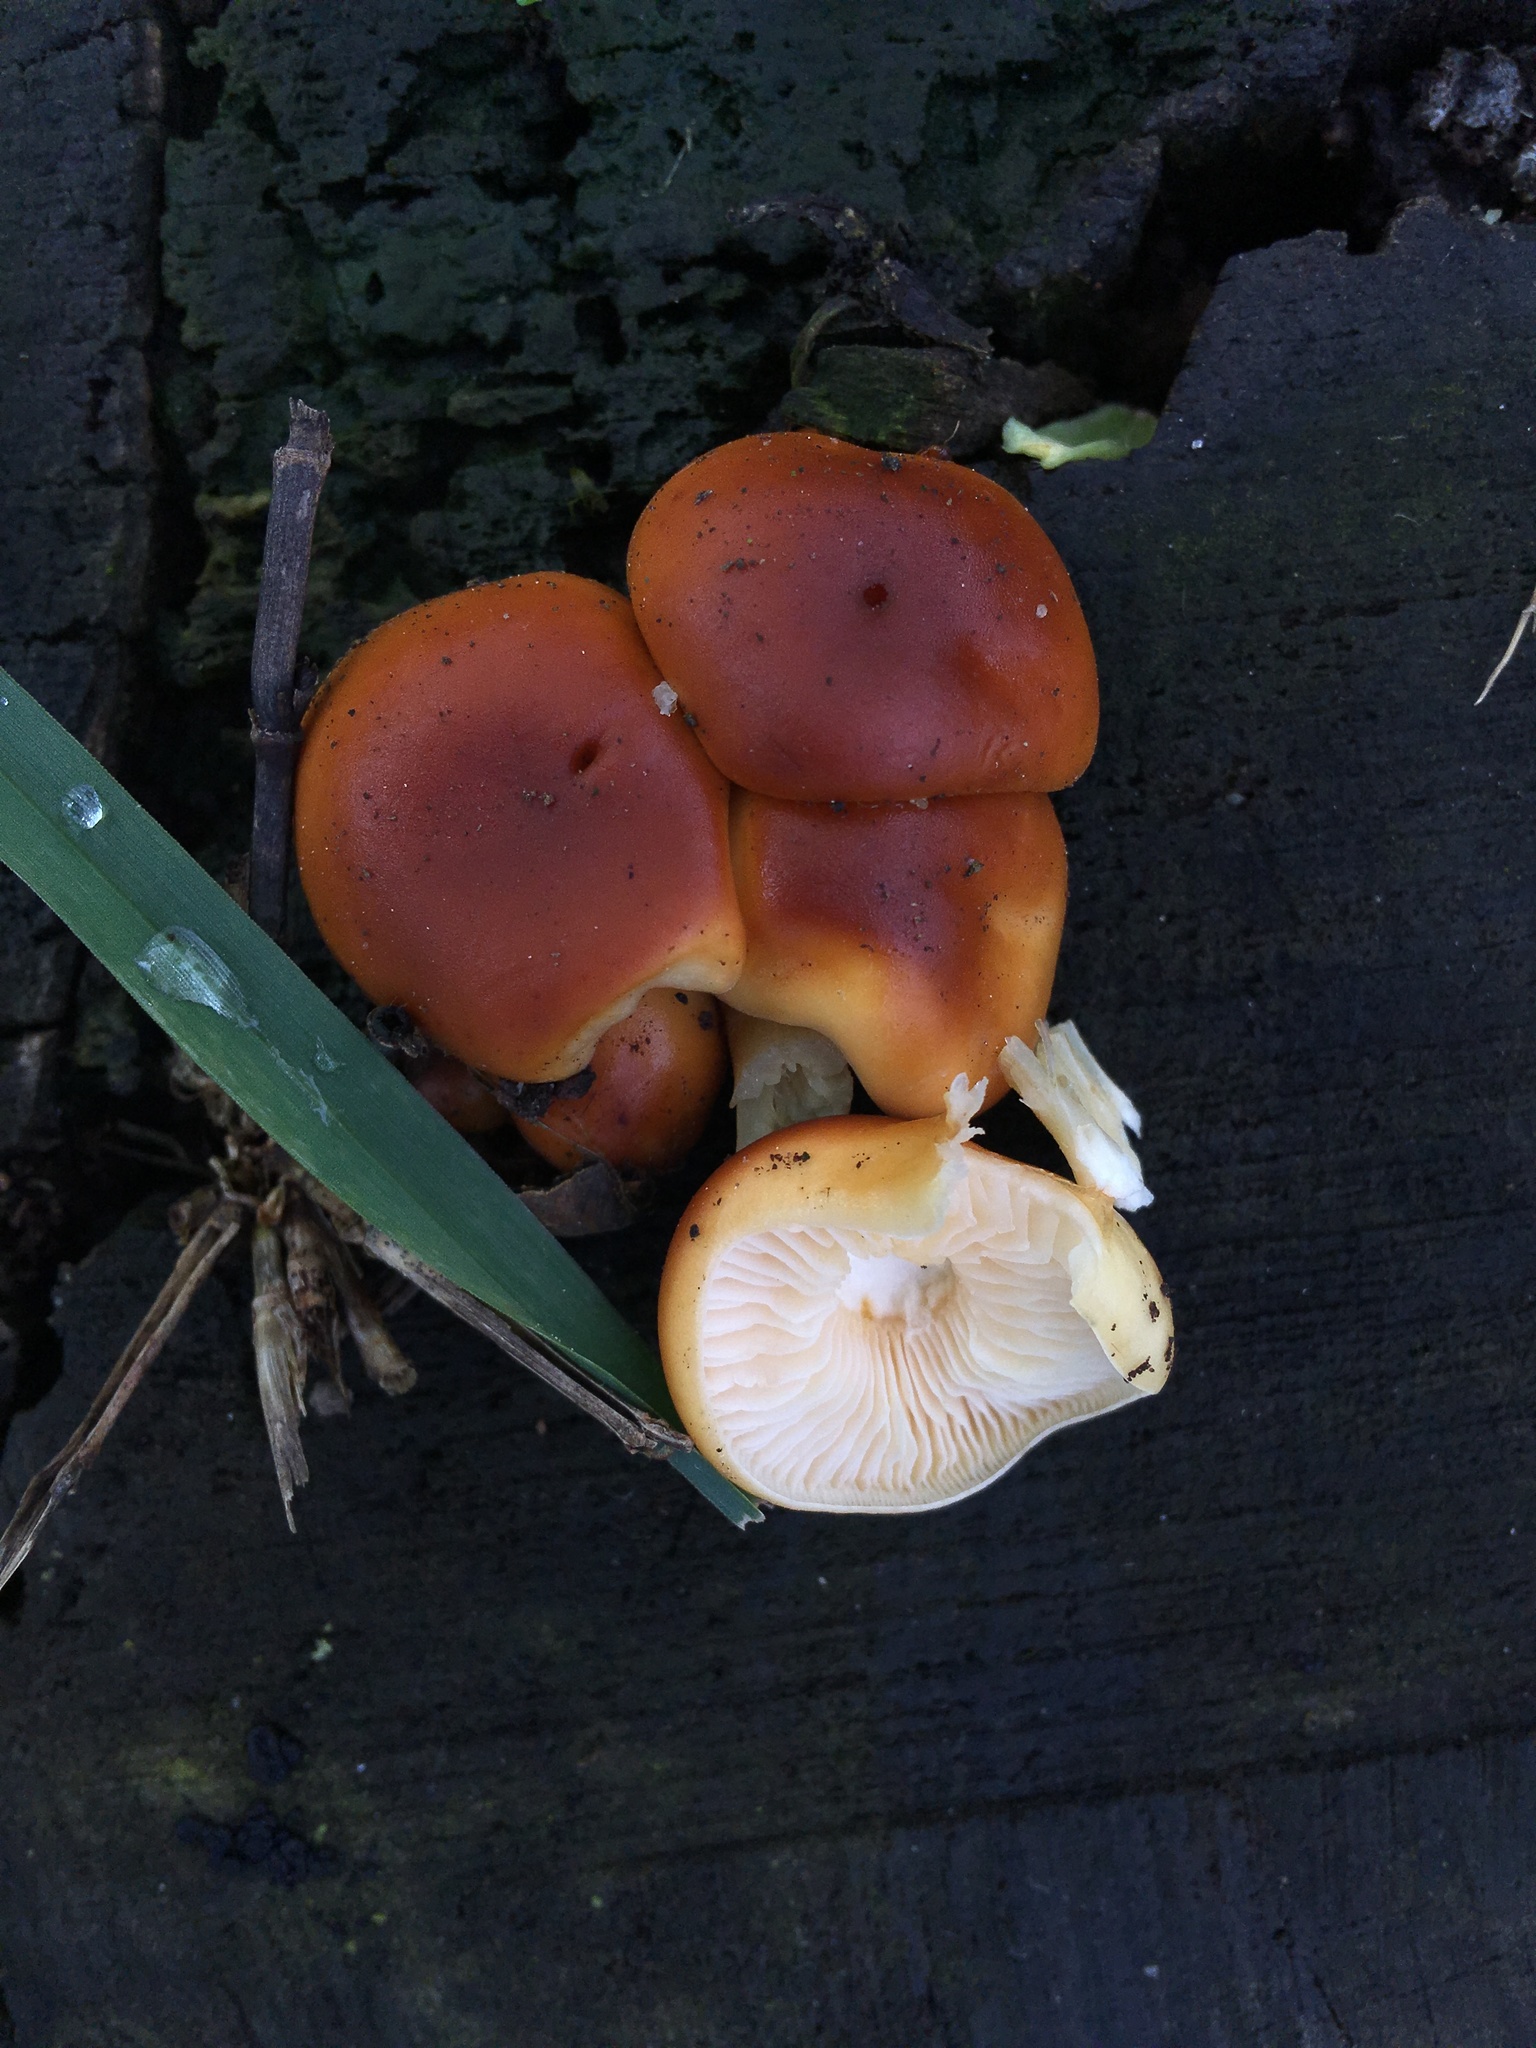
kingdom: Fungi
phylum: Basidiomycota
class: Agaricomycetes
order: Agaricales
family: Physalacriaceae
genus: Flammulina
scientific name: Flammulina velutipes
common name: Velvet shank
